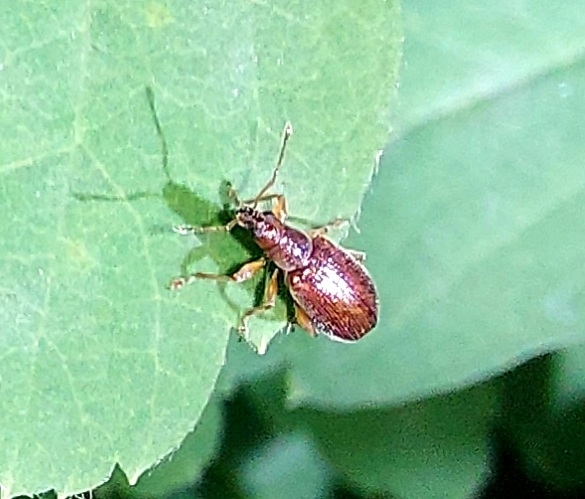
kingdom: Animalia
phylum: Arthropoda
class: Insecta
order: Coleoptera
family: Curculionidae
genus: Phyllobius
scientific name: Phyllobius oblongus
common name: Brown leaf weevil
